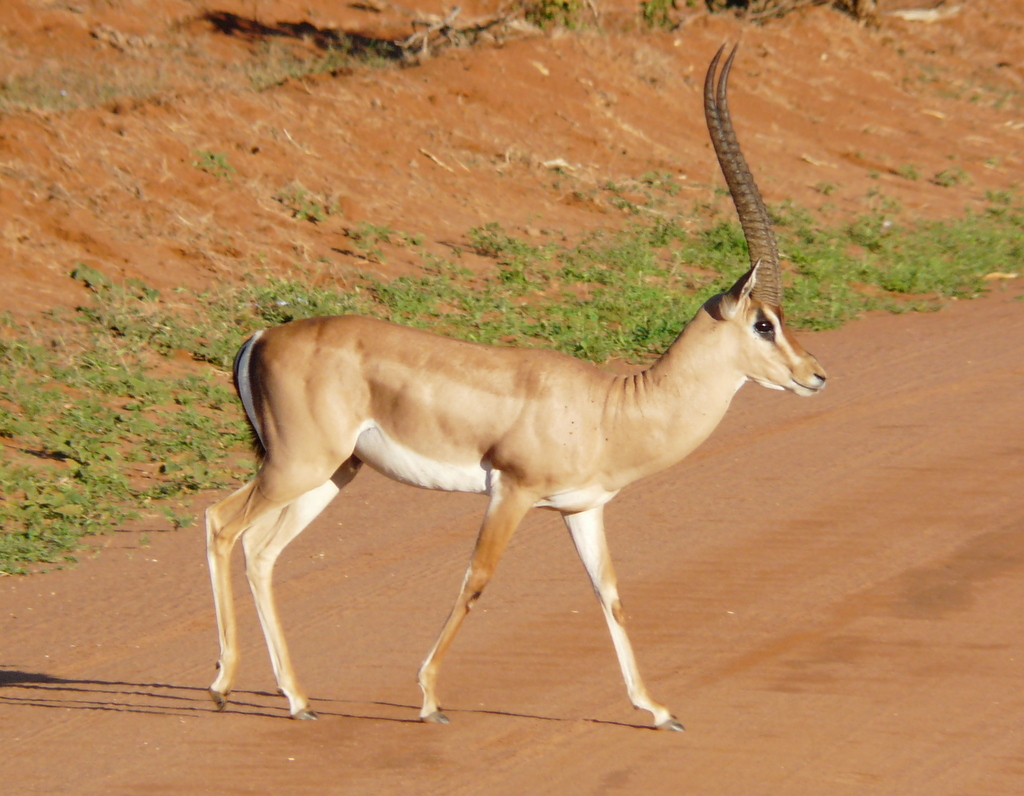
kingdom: Animalia
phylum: Chordata
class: Mammalia
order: Artiodactyla
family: Bovidae
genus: Nanger
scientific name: Nanger granti
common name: Grant's gazelle
